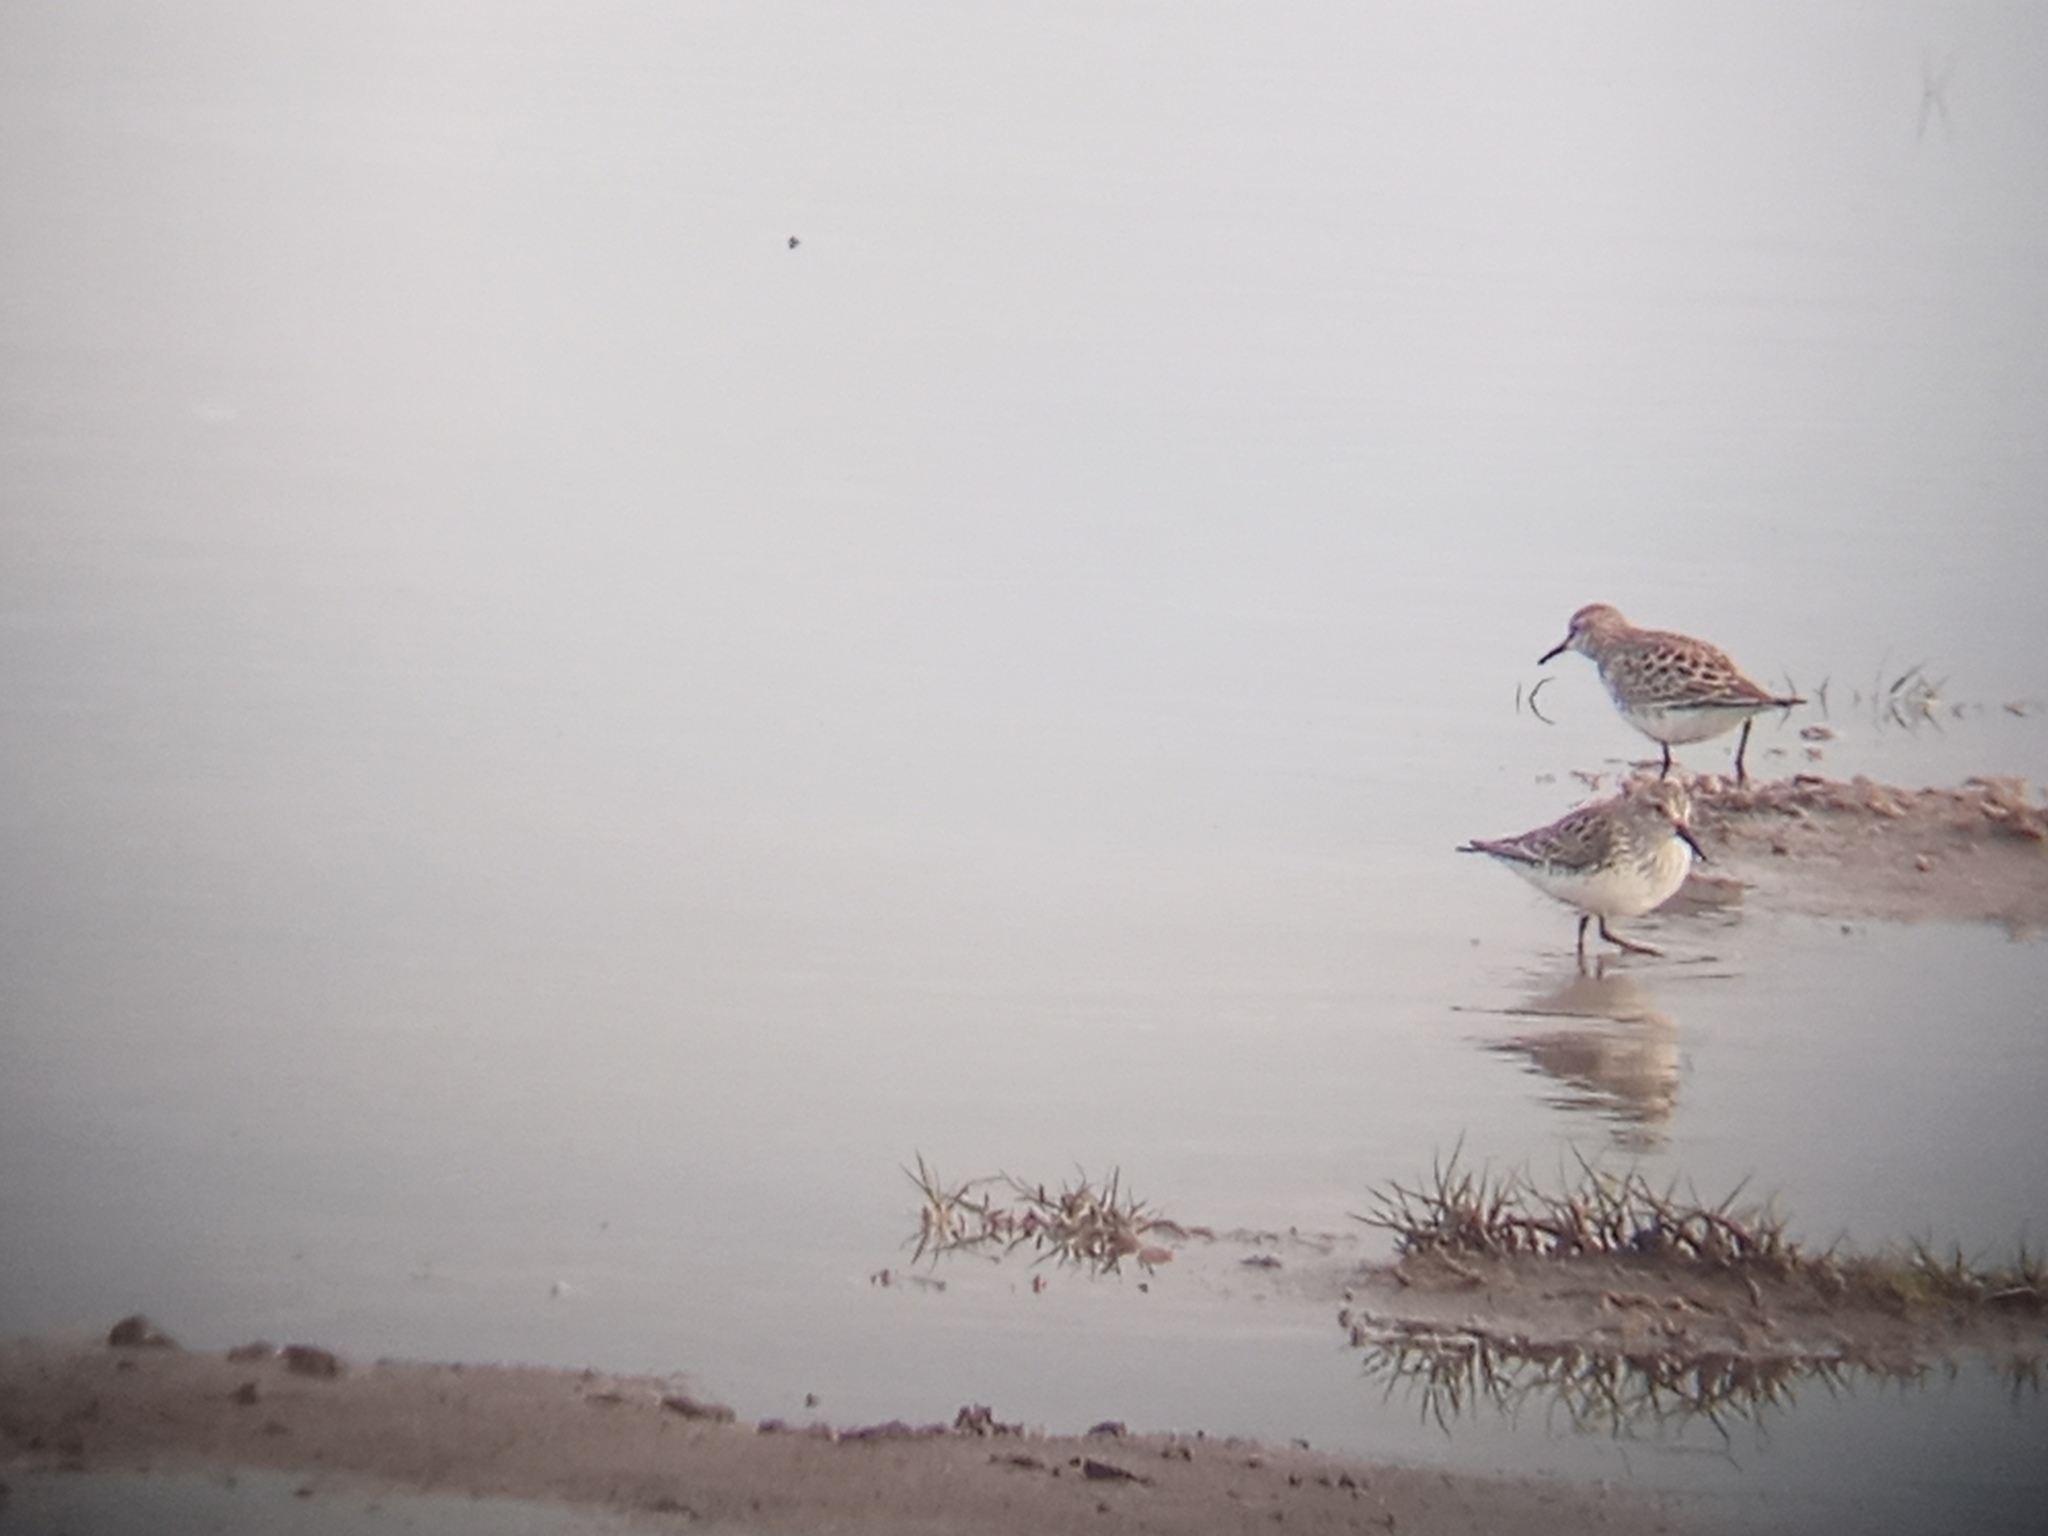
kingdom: Animalia
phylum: Chordata
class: Aves
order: Charadriiformes
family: Scolopacidae
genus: Calidris
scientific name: Calidris fuscicollis
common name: White-rumped sandpiper
